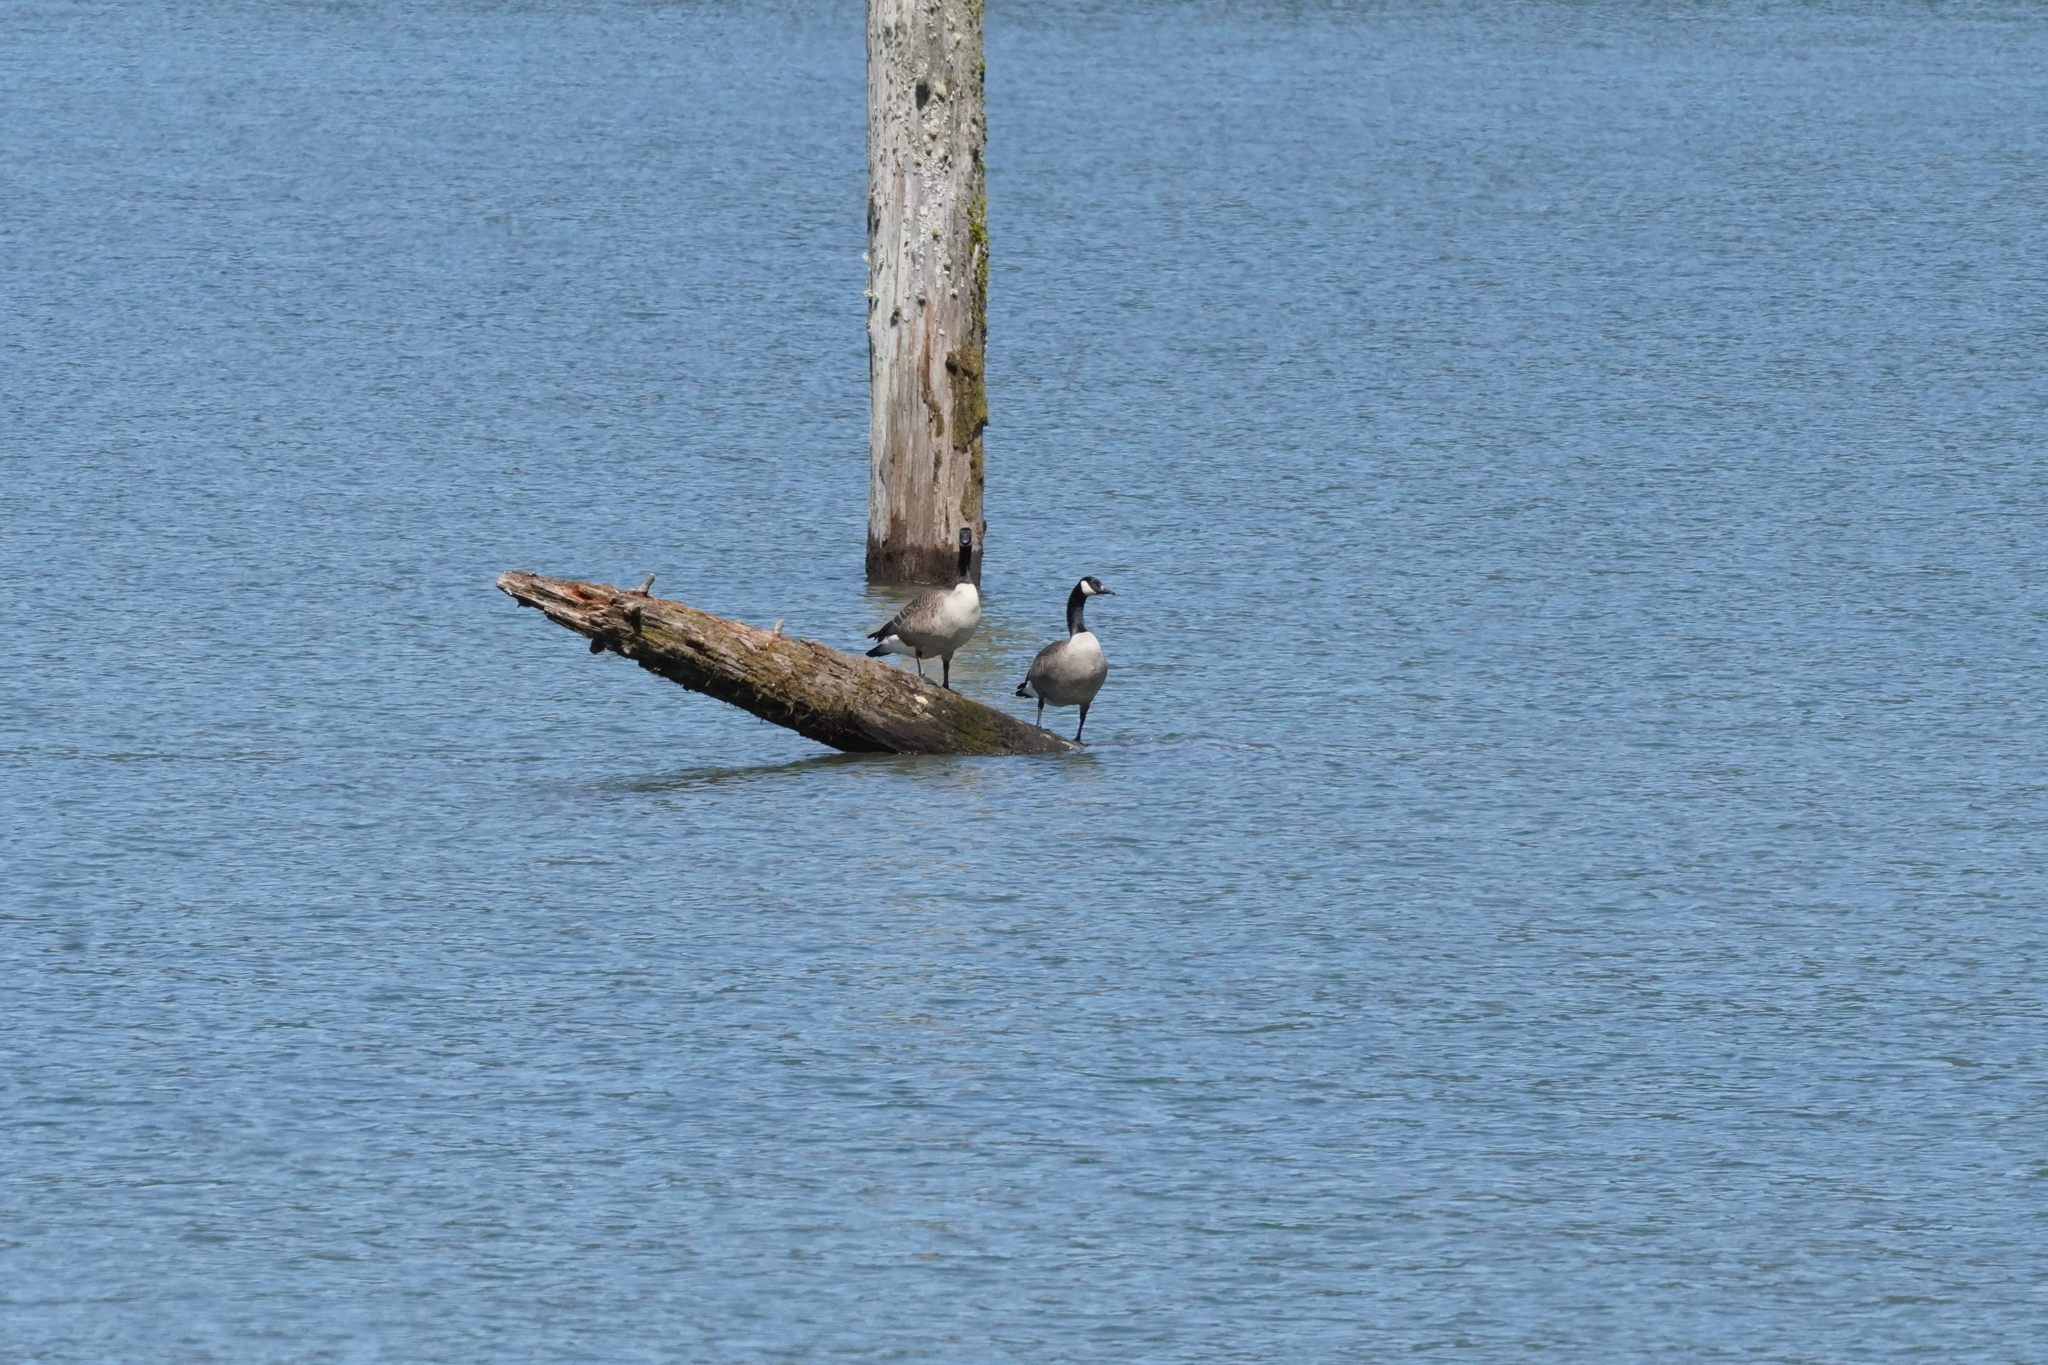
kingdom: Animalia
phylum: Chordata
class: Aves
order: Anseriformes
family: Anatidae
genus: Branta
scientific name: Branta canadensis
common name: Canada goose
